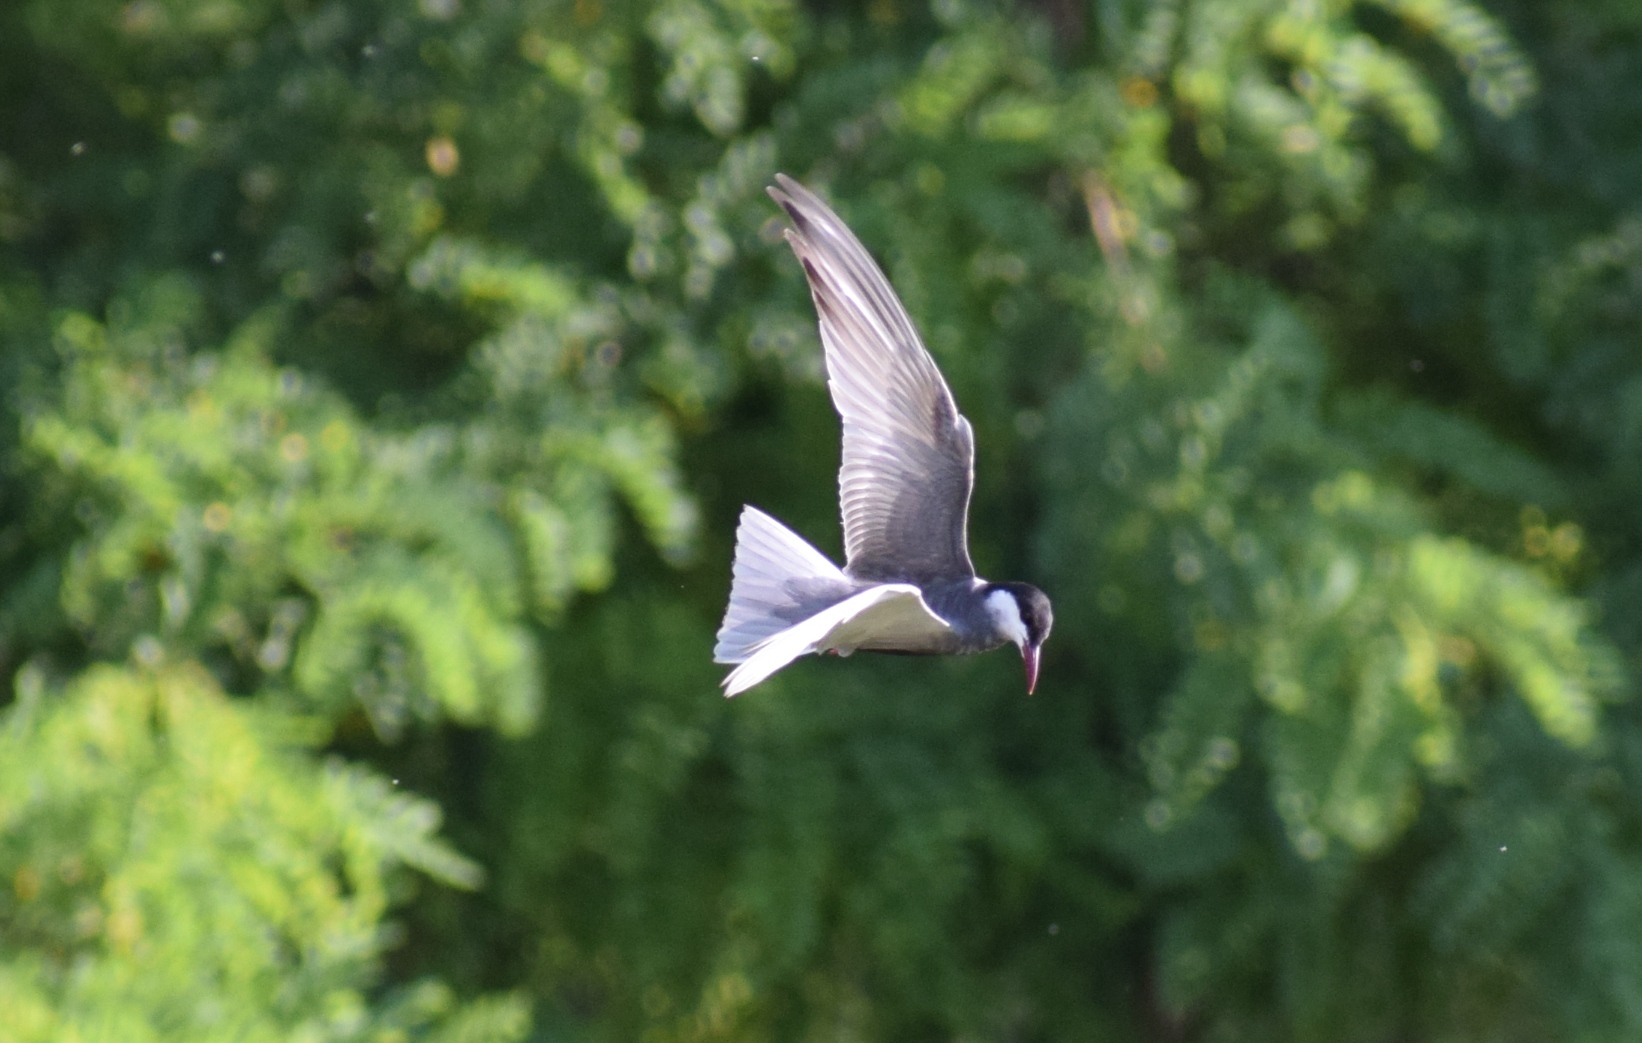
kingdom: Animalia
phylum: Chordata
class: Aves
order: Charadriiformes
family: Laridae
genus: Chlidonias
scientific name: Chlidonias hybrida
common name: Whiskered tern
